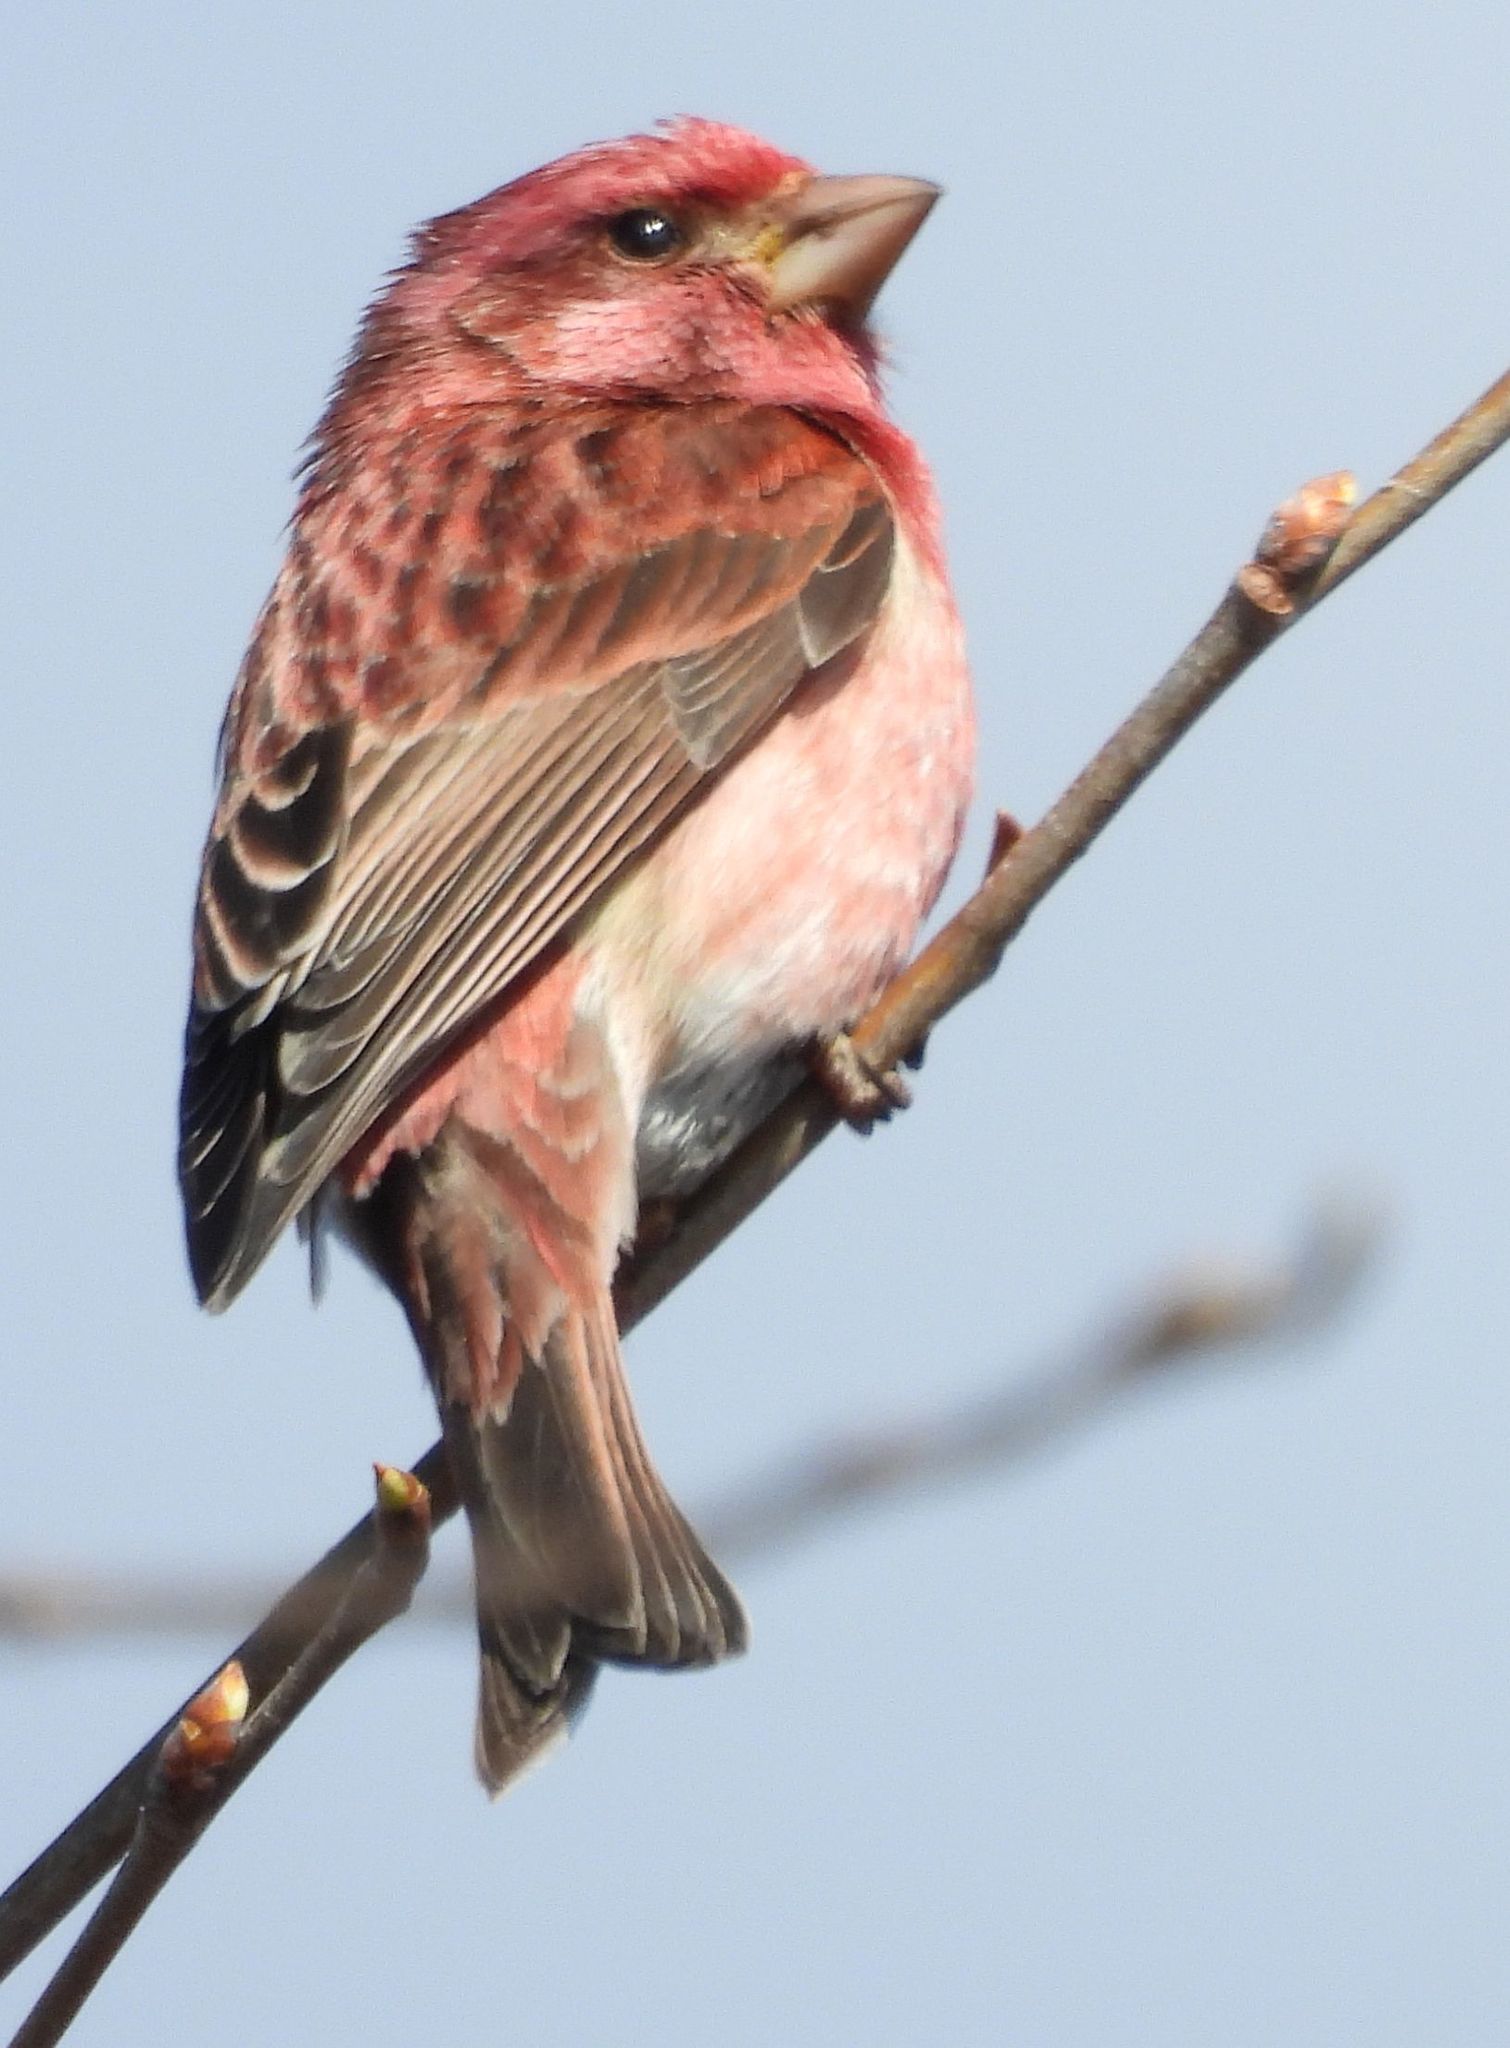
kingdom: Animalia
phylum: Chordata
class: Aves
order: Passeriformes
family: Fringillidae
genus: Haemorhous
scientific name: Haemorhous purpureus
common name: Purple finch
